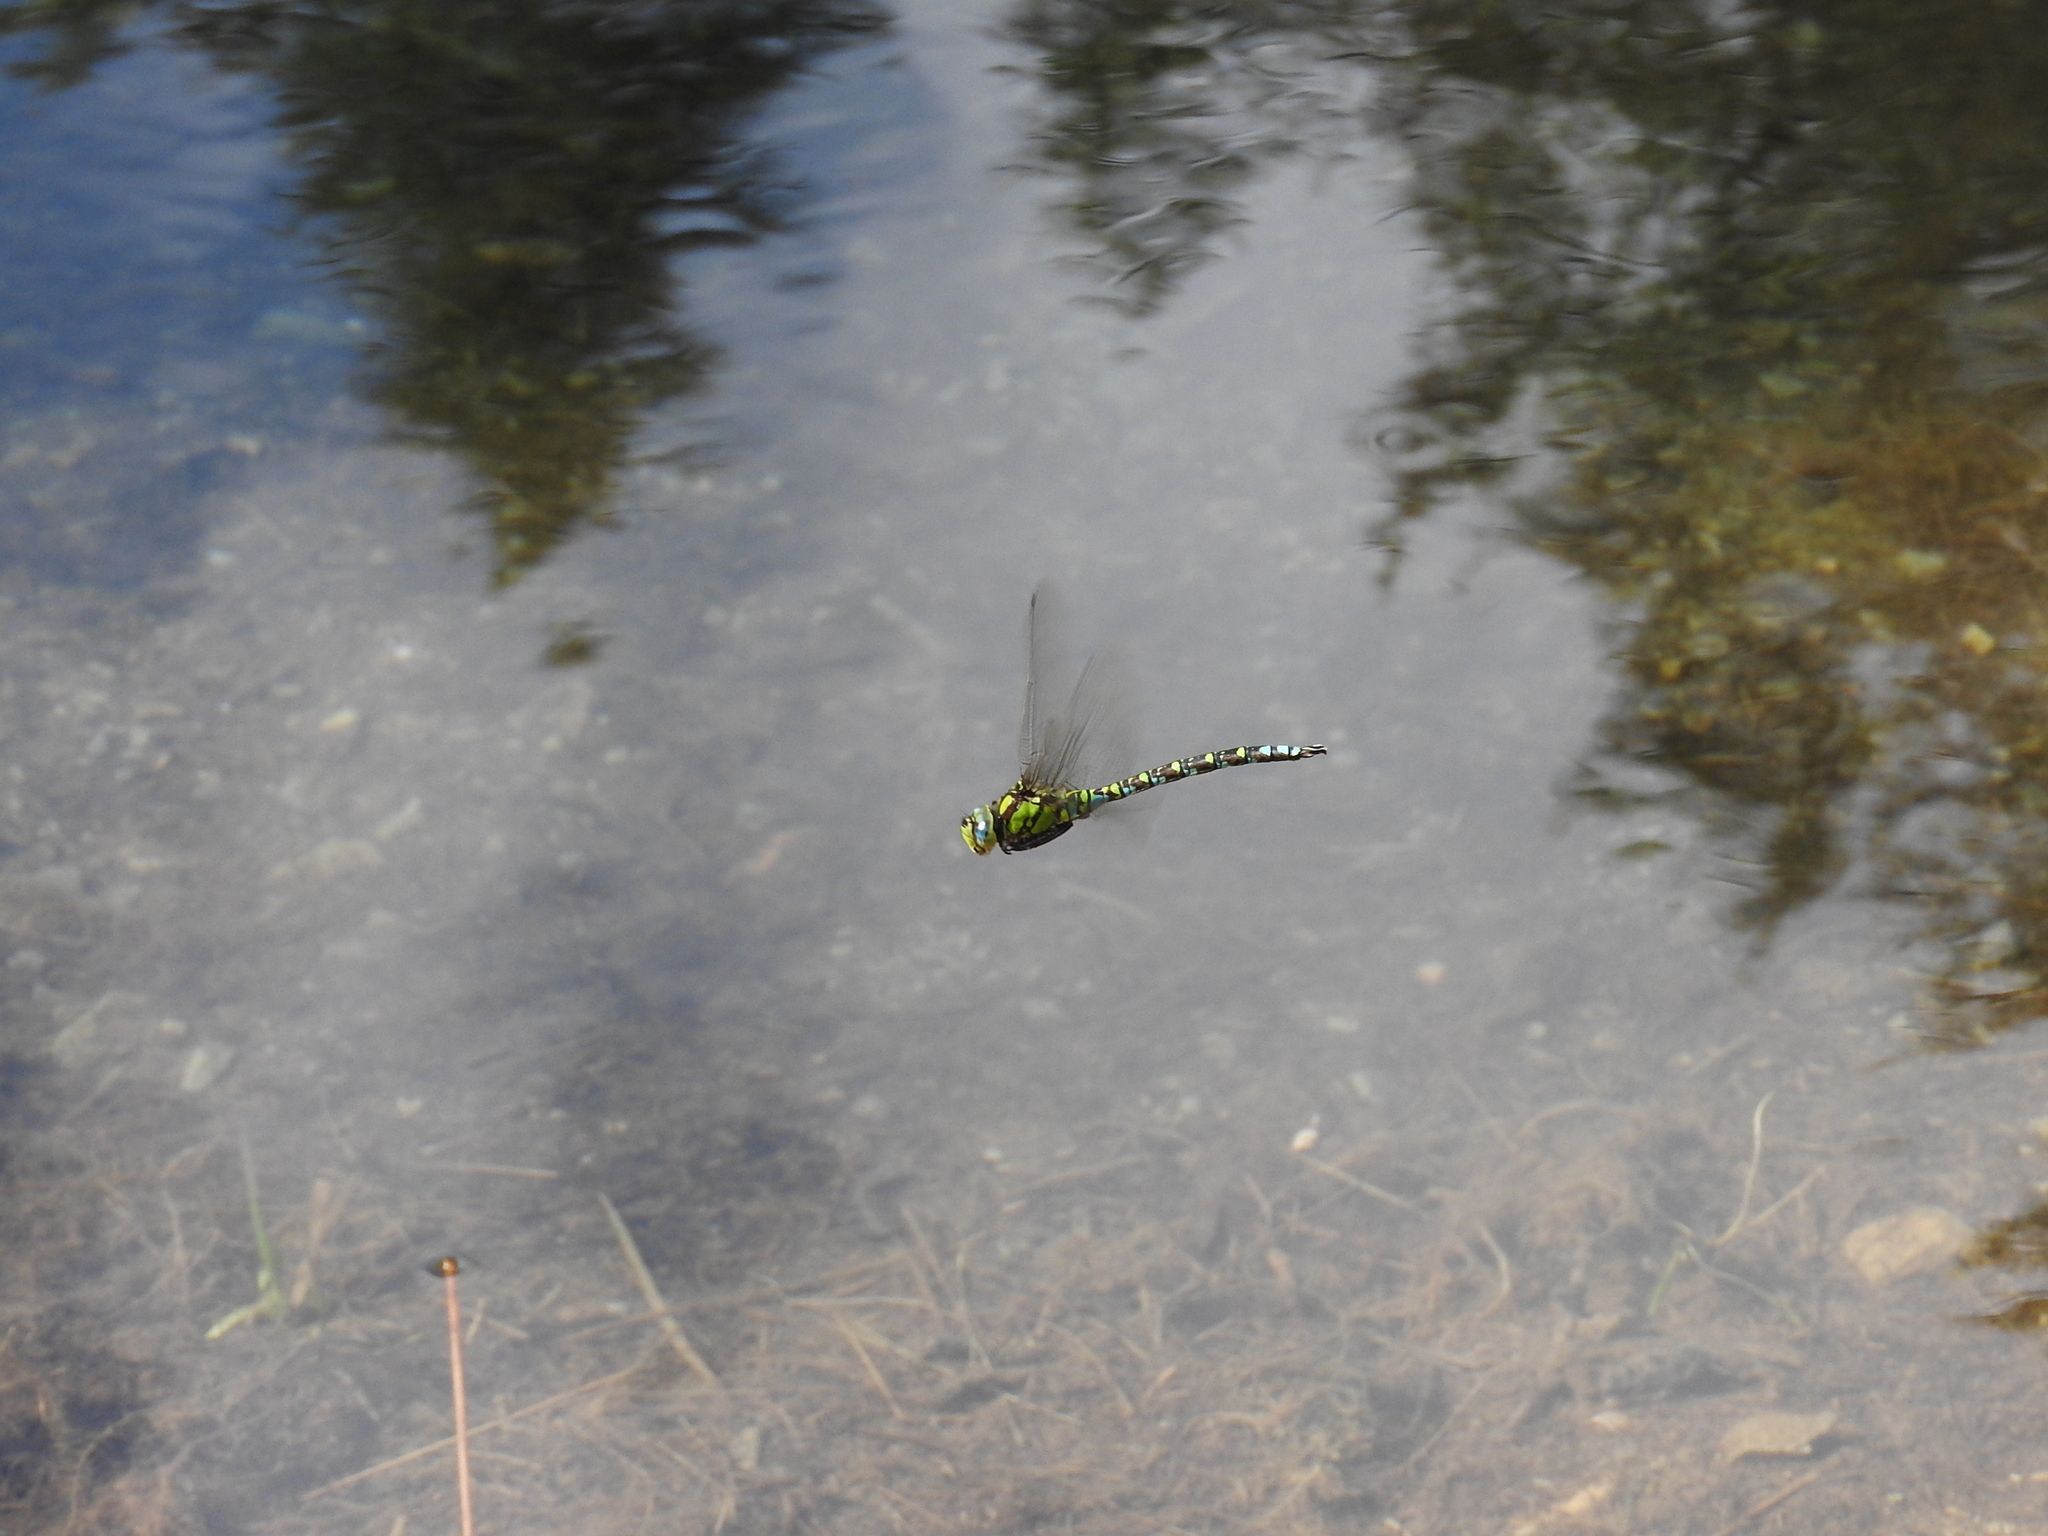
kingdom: Animalia
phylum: Arthropoda
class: Insecta
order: Odonata
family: Aeshnidae
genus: Aeshna
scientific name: Aeshna cyanea
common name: Southern hawker
